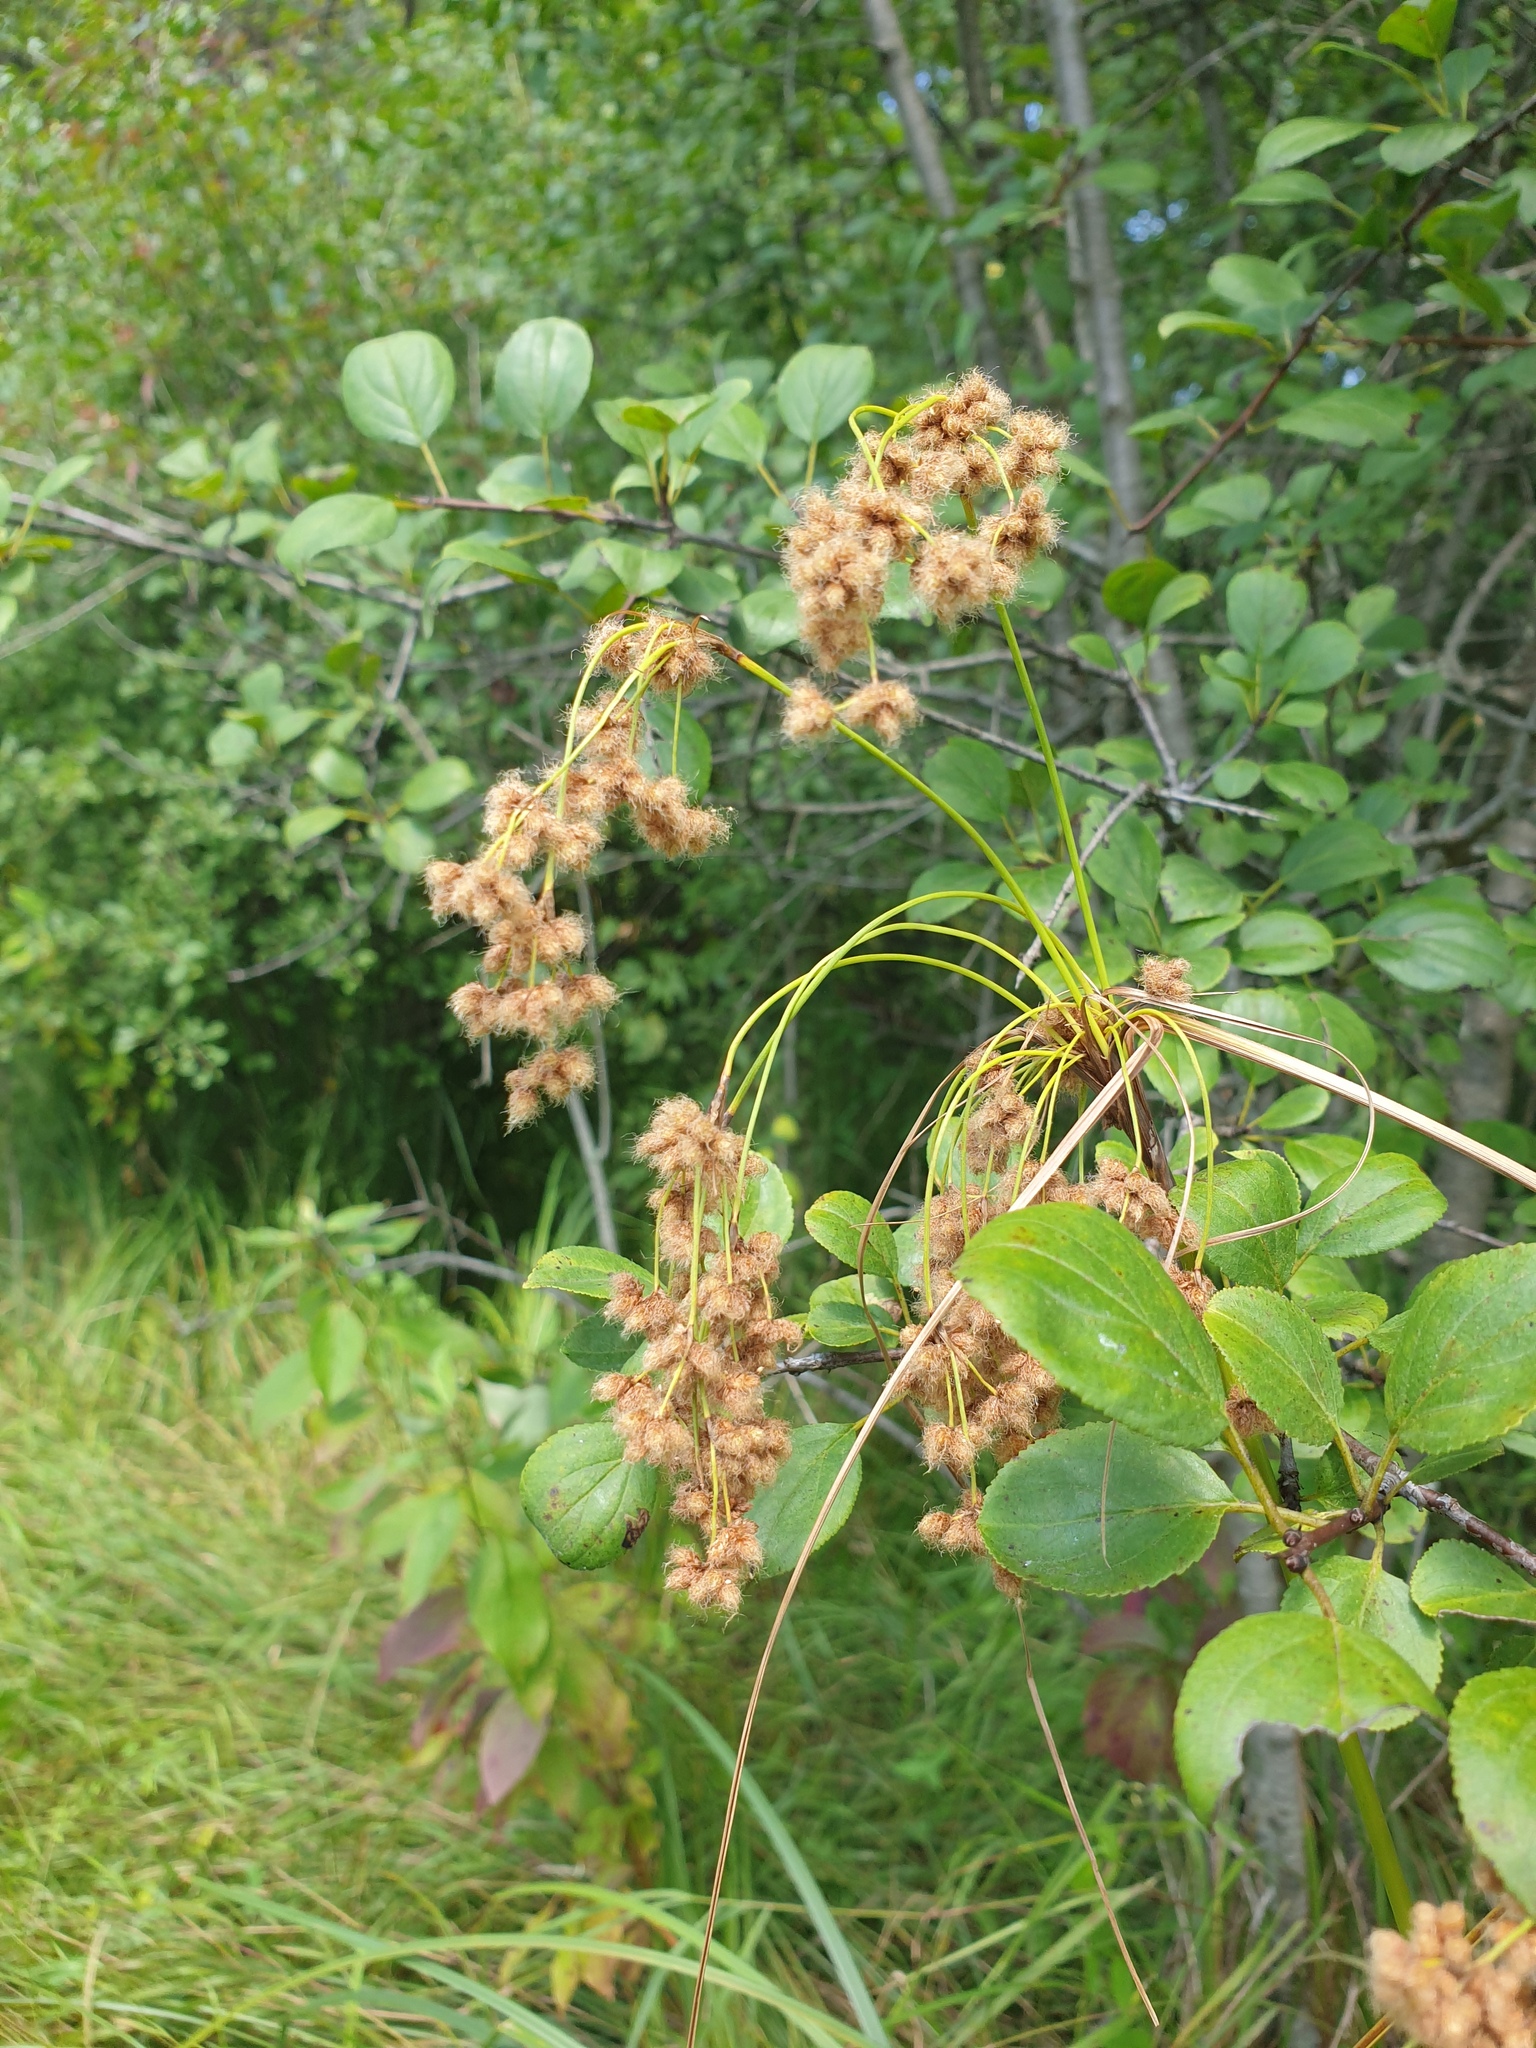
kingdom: Plantae
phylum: Tracheophyta
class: Liliopsida
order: Poales
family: Cyperaceae
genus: Scirpus
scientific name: Scirpus cyperinus
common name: Black-sheathed bulrush
